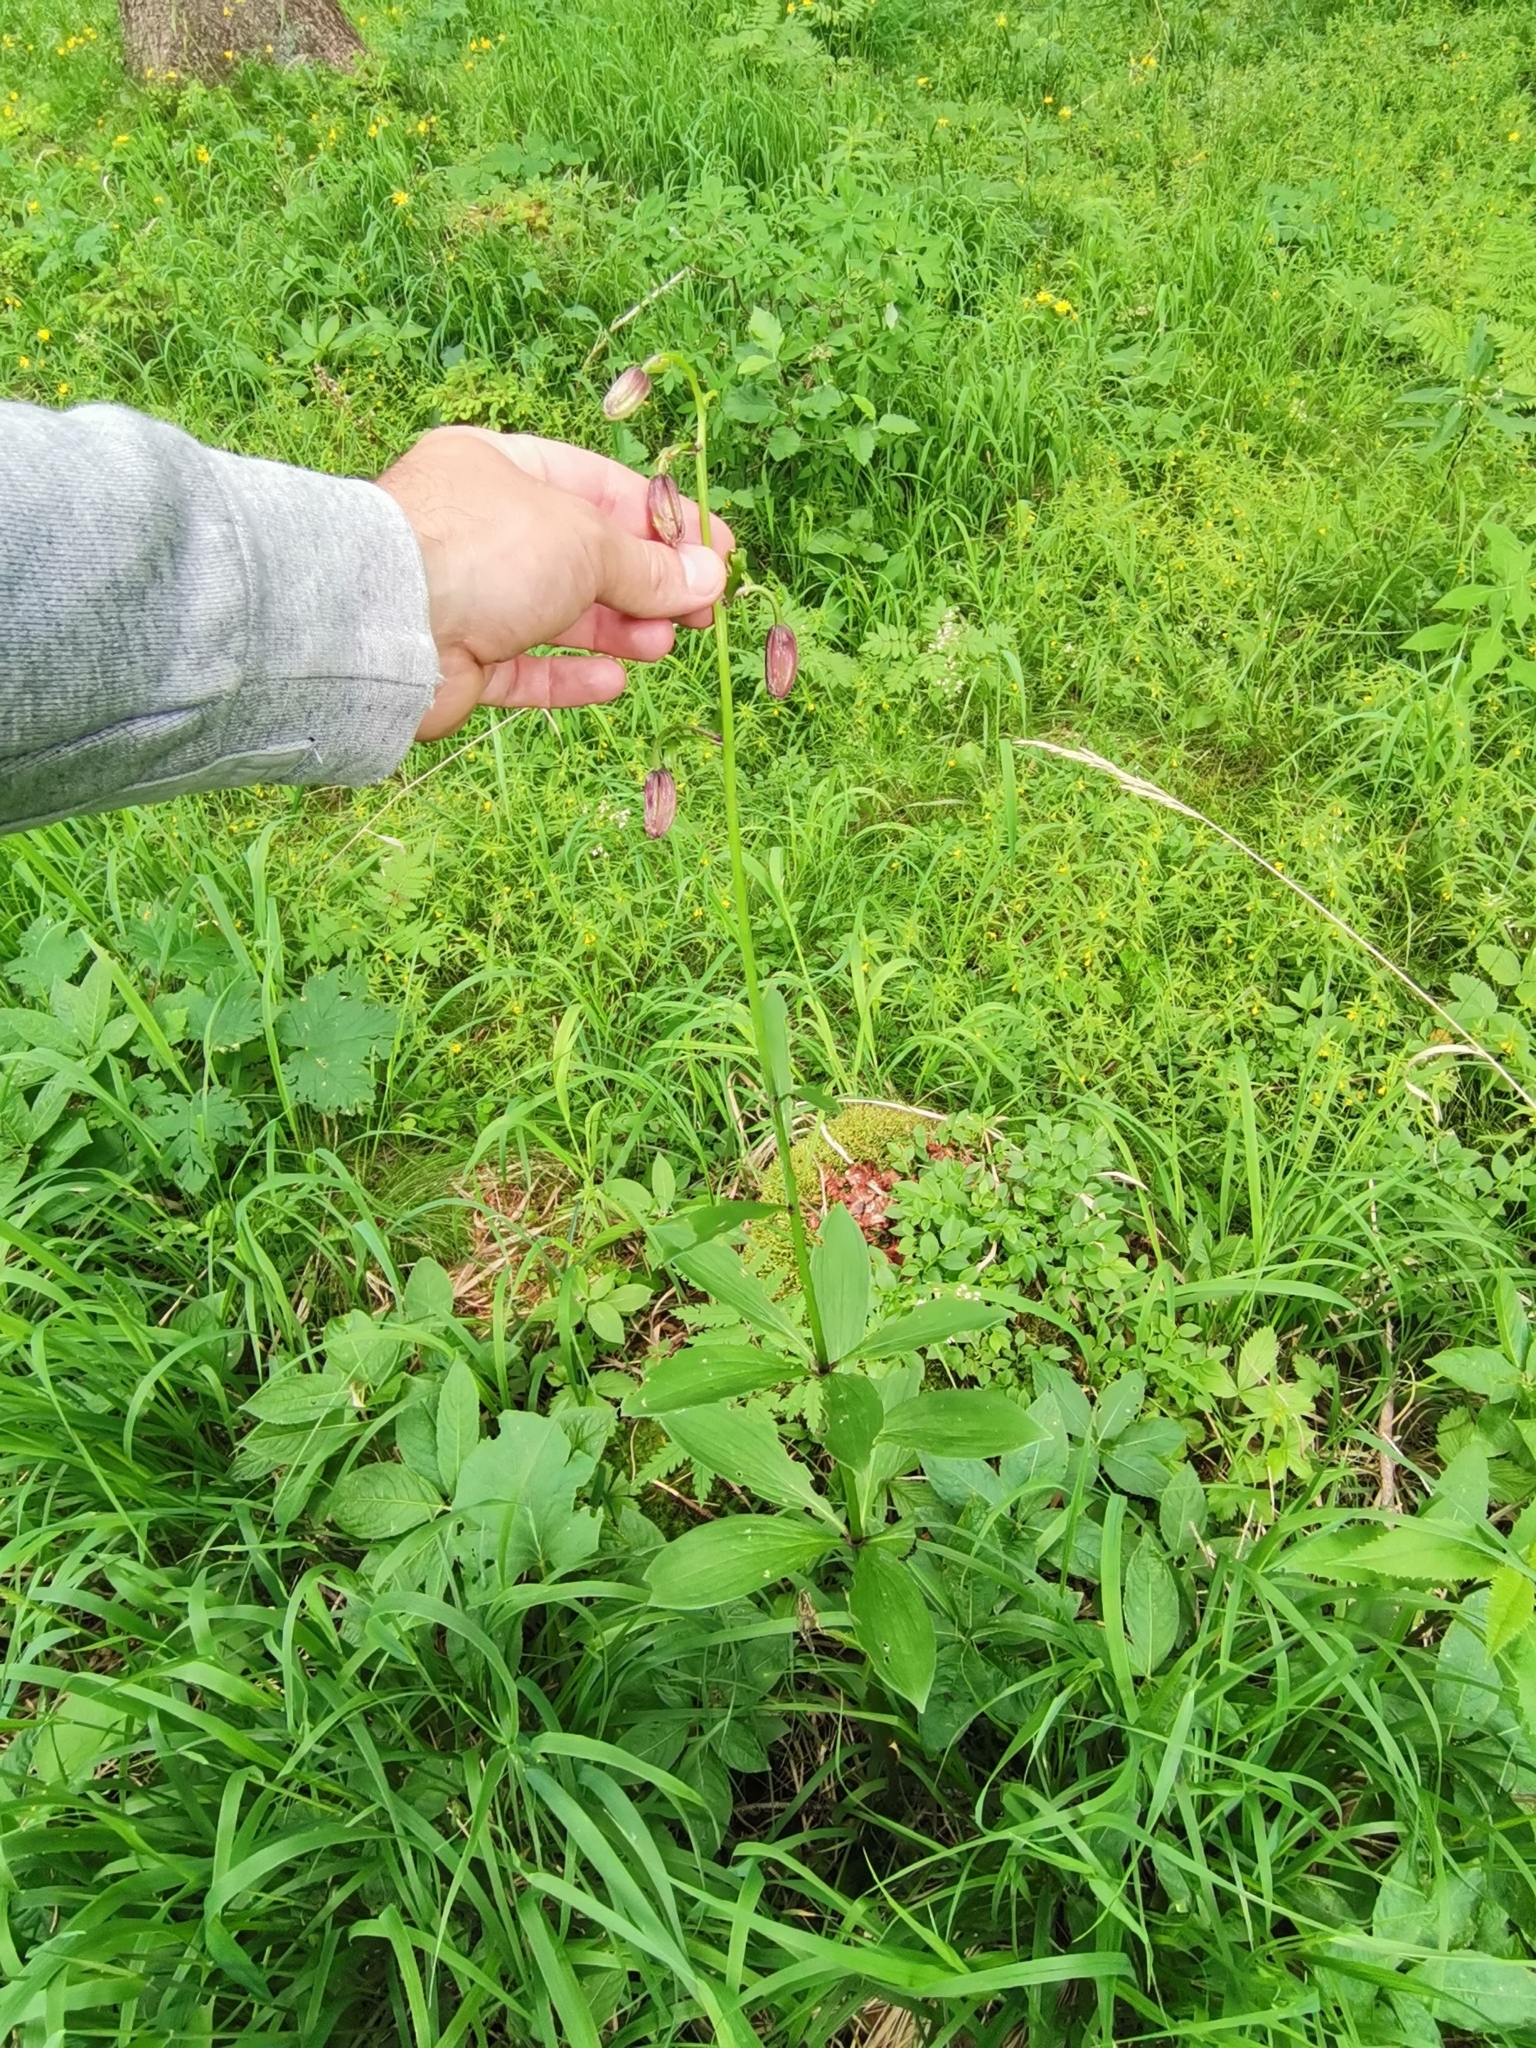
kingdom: Plantae
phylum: Tracheophyta
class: Liliopsida
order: Liliales
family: Liliaceae
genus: Lilium
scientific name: Lilium martagon
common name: Martagon lily
